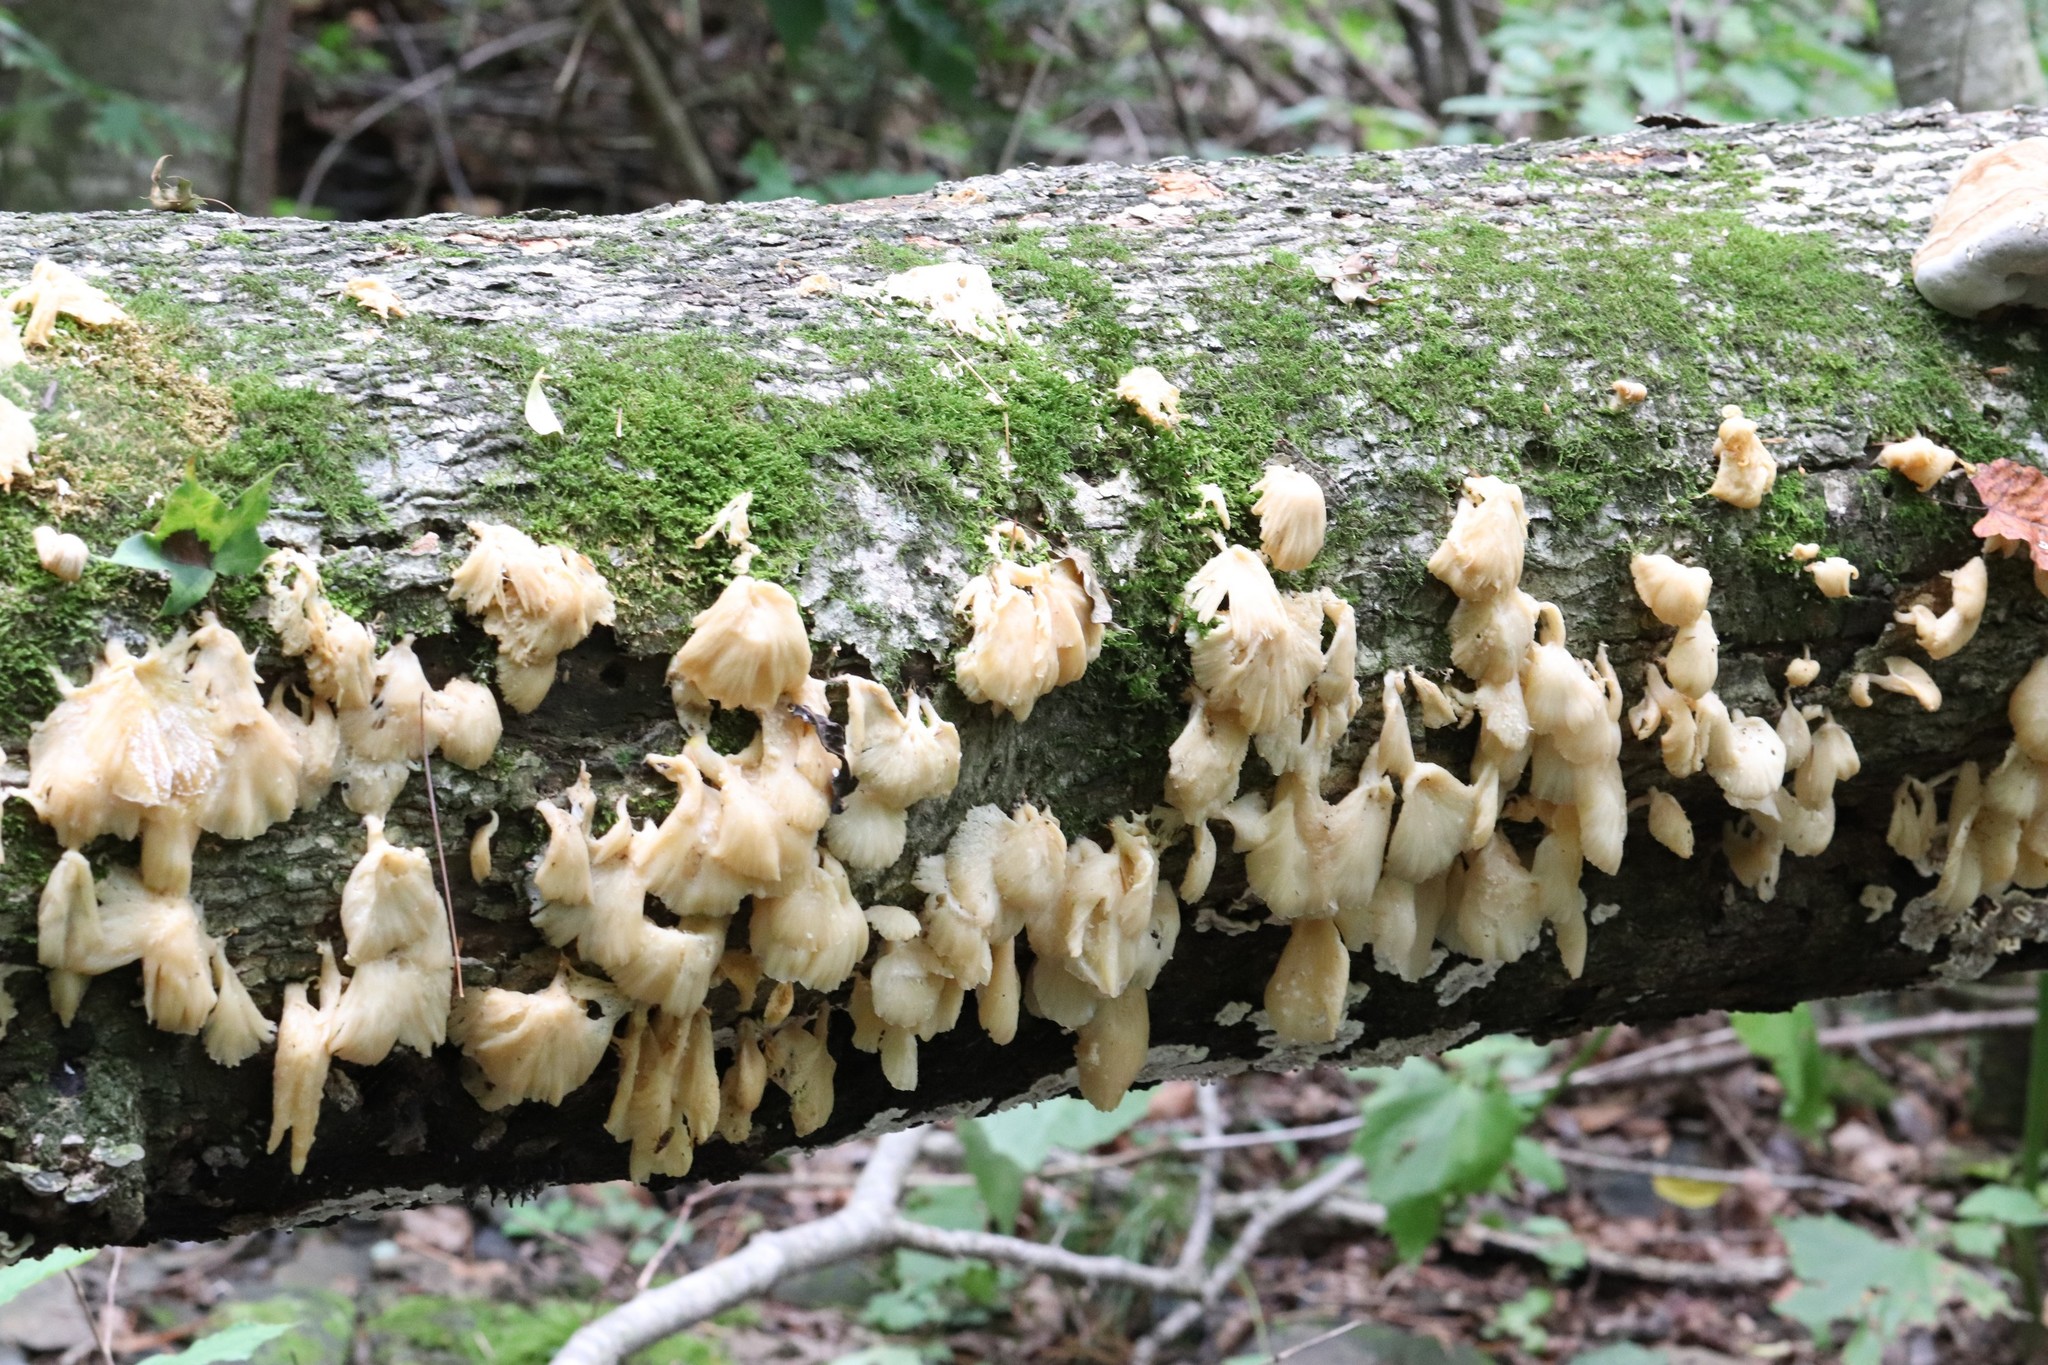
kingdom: Fungi
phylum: Basidiomycota
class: Agaricomycetes
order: Agaricales
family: Pleurotaceae
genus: Pleurotus
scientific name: Pleurotus citrinopileatus
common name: Golden oyster mushroom
